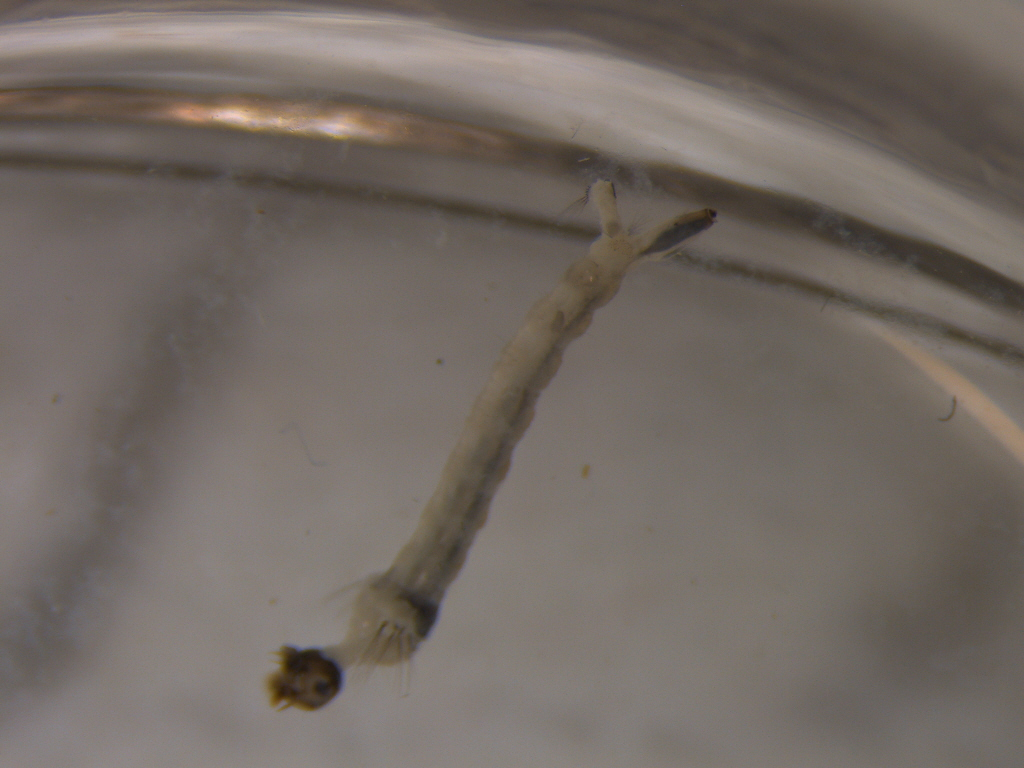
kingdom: Animalia
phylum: Arthropoda
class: Insecta
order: Diptera
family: Culicidae
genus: Aedes
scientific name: Aedes australis
